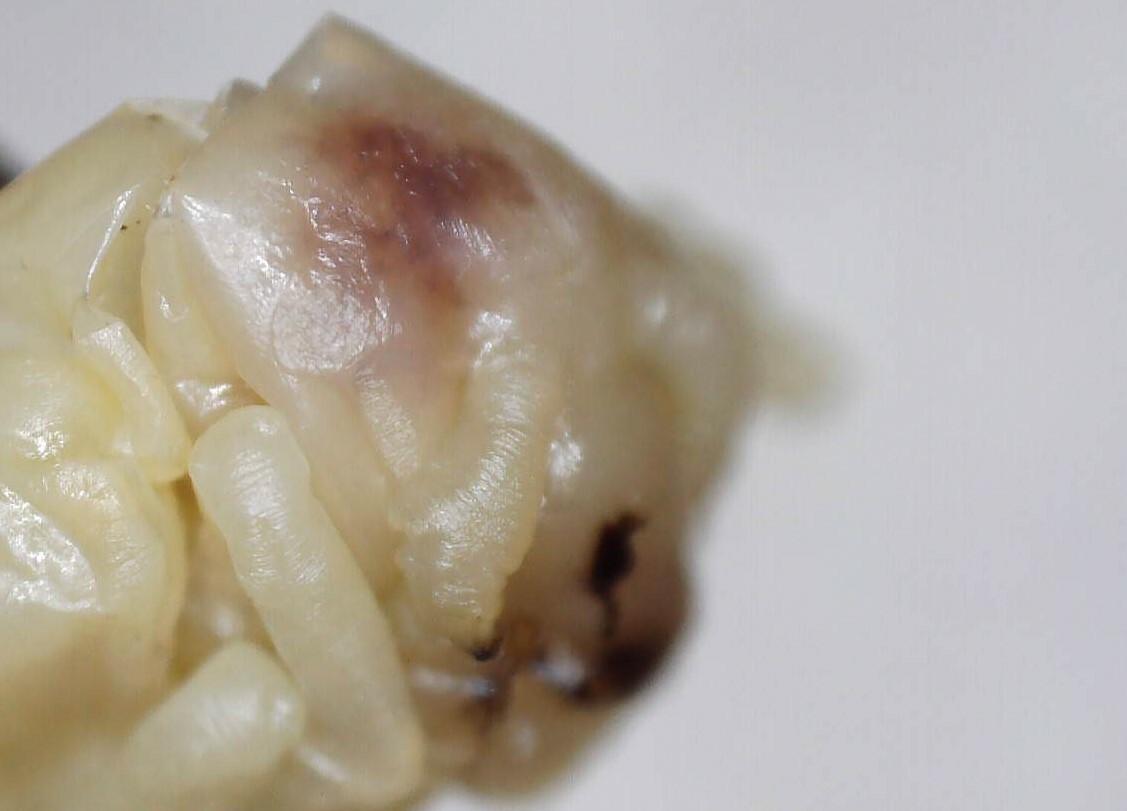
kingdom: Animalia
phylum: Arthropoda
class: Insecta
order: Hymenoptera
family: Vespidae
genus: Dolichovespula
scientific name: Dolichovespula maculata
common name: Bald-faced hornet
